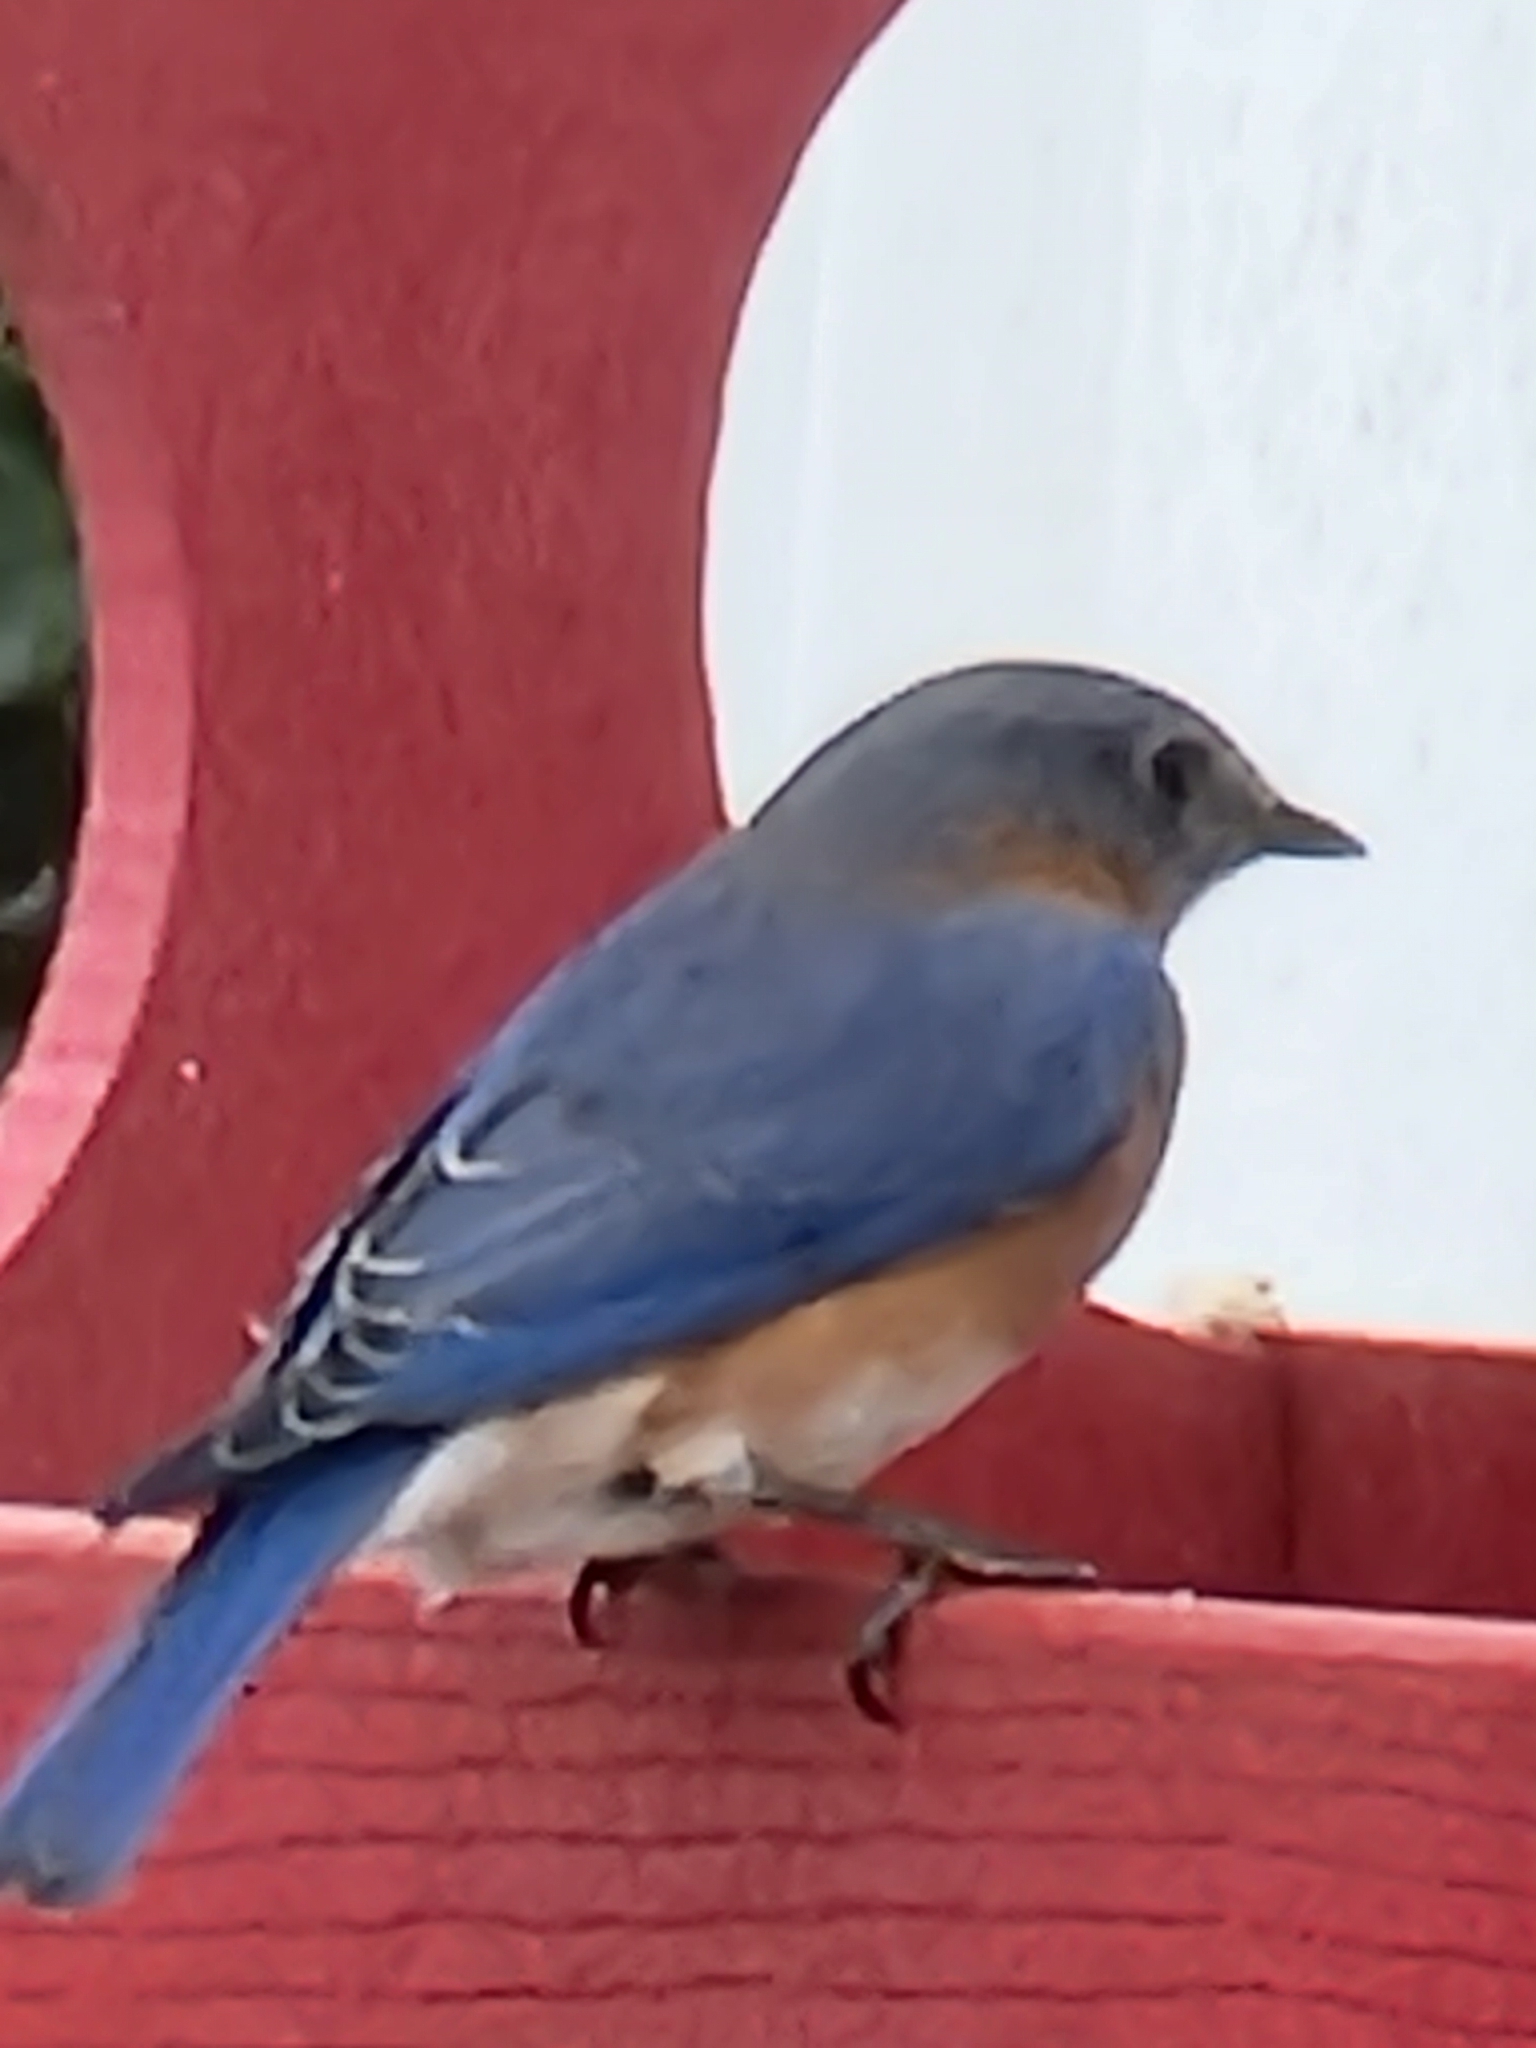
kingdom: Animalia
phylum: Chordata
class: Aves
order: Passeriformes
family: Turdidae
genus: Sialia
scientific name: Sialia sialis
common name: Eastern bluebird
